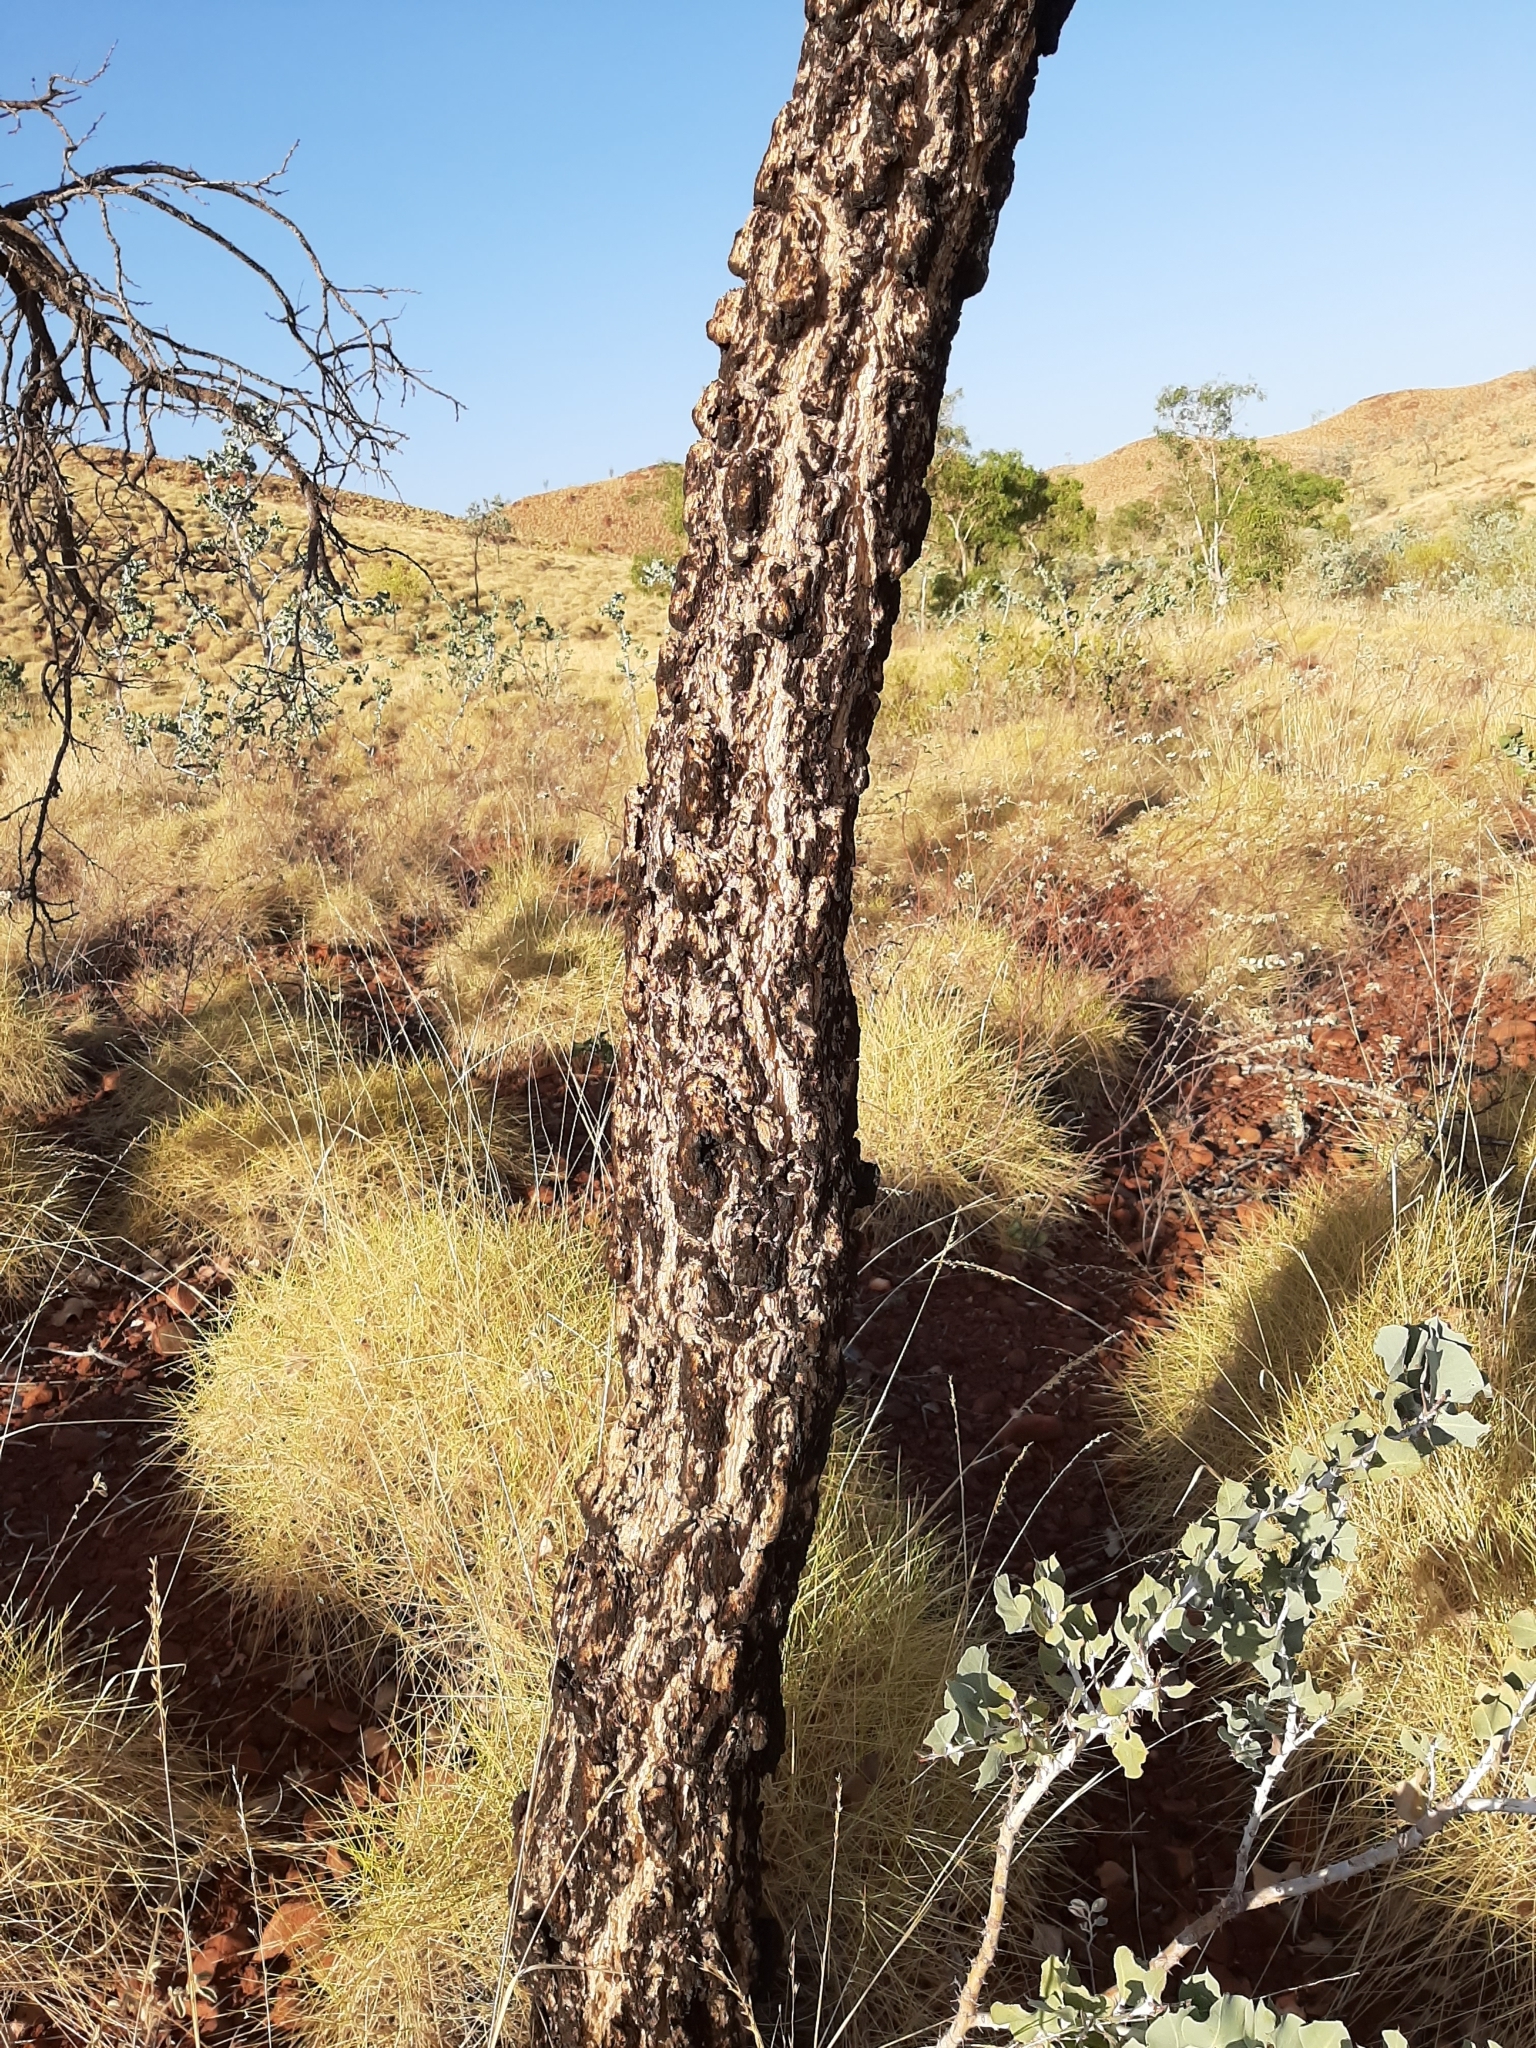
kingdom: Plantae
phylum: Tracheophyta
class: Magnoliopsida
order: Fabales
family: Fabaceae
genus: Acacia
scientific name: Acacia inaequilatera
